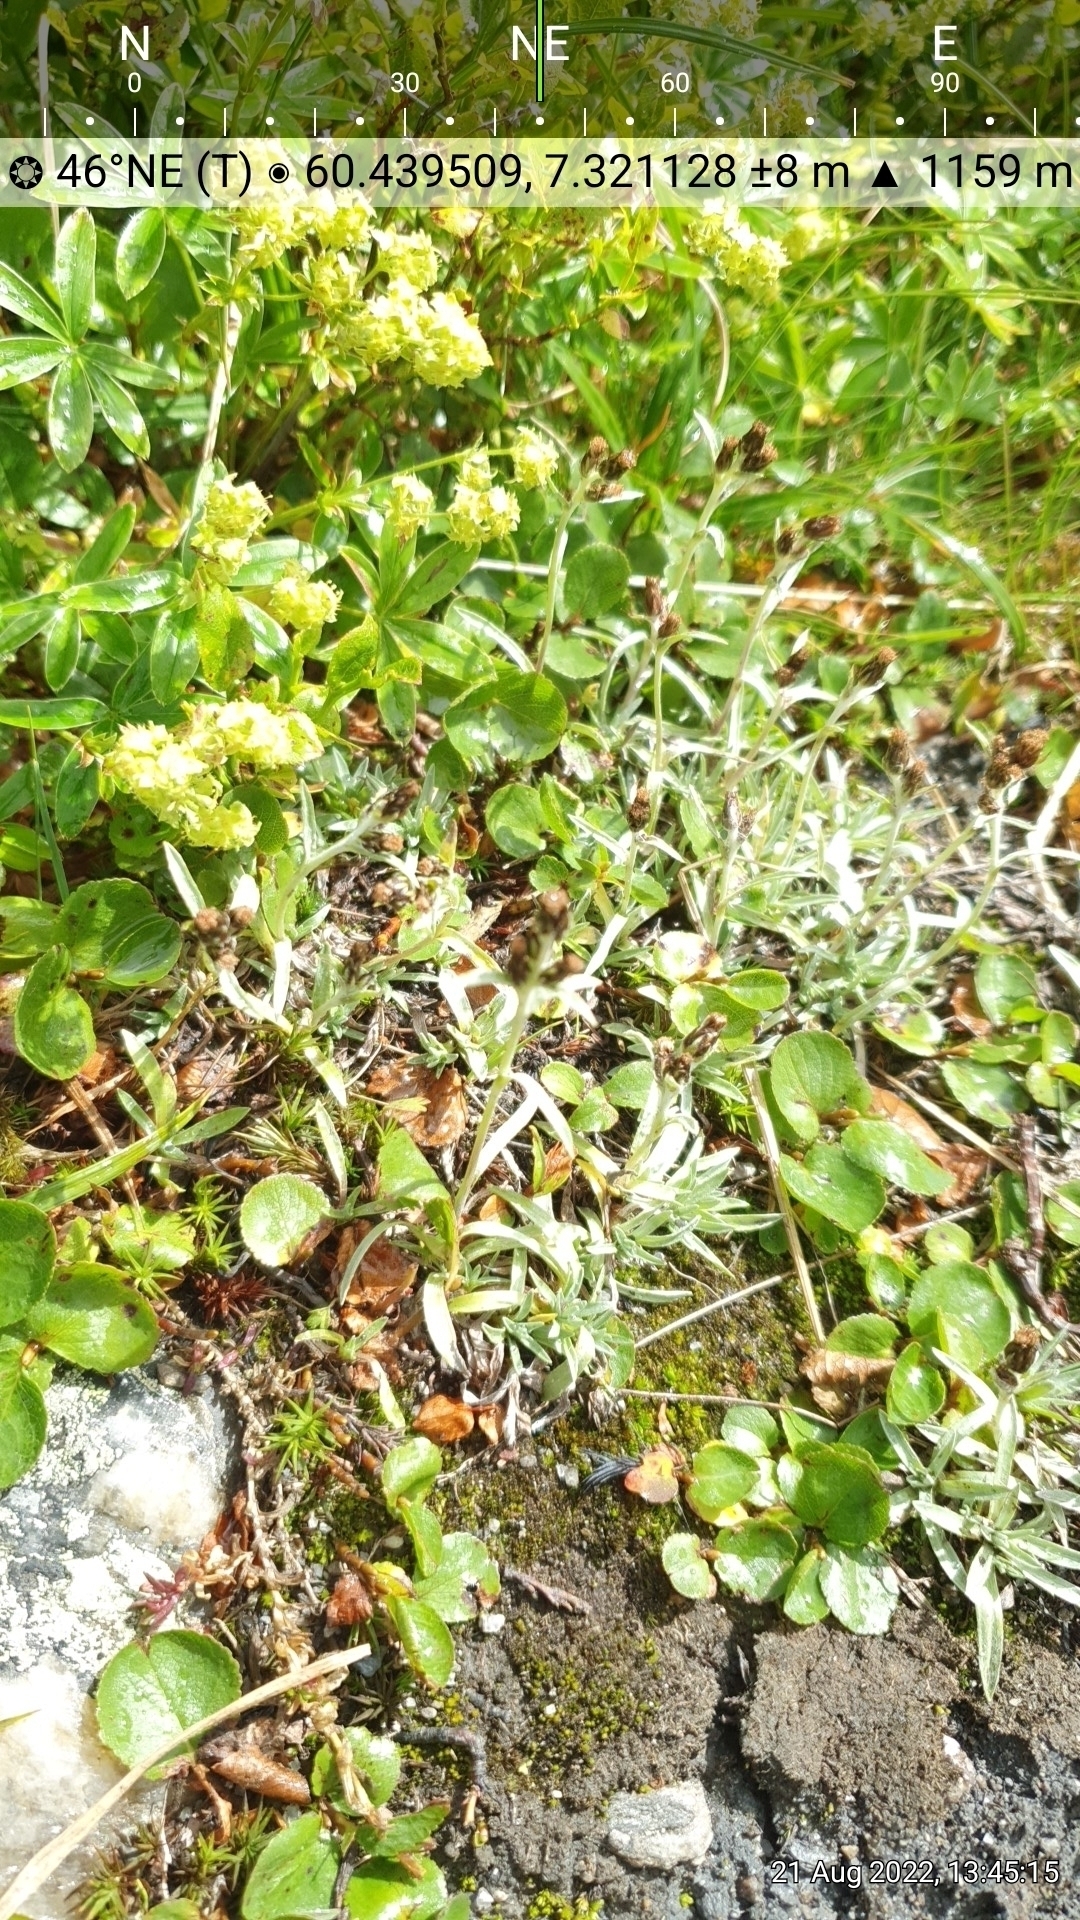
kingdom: Plantae
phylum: Tracheophyta
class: Magnoliopsida
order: Asterales
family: Asteraceae
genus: Omalotheca
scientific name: Omalotheca supina
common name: Alpine arctic-cudweed
